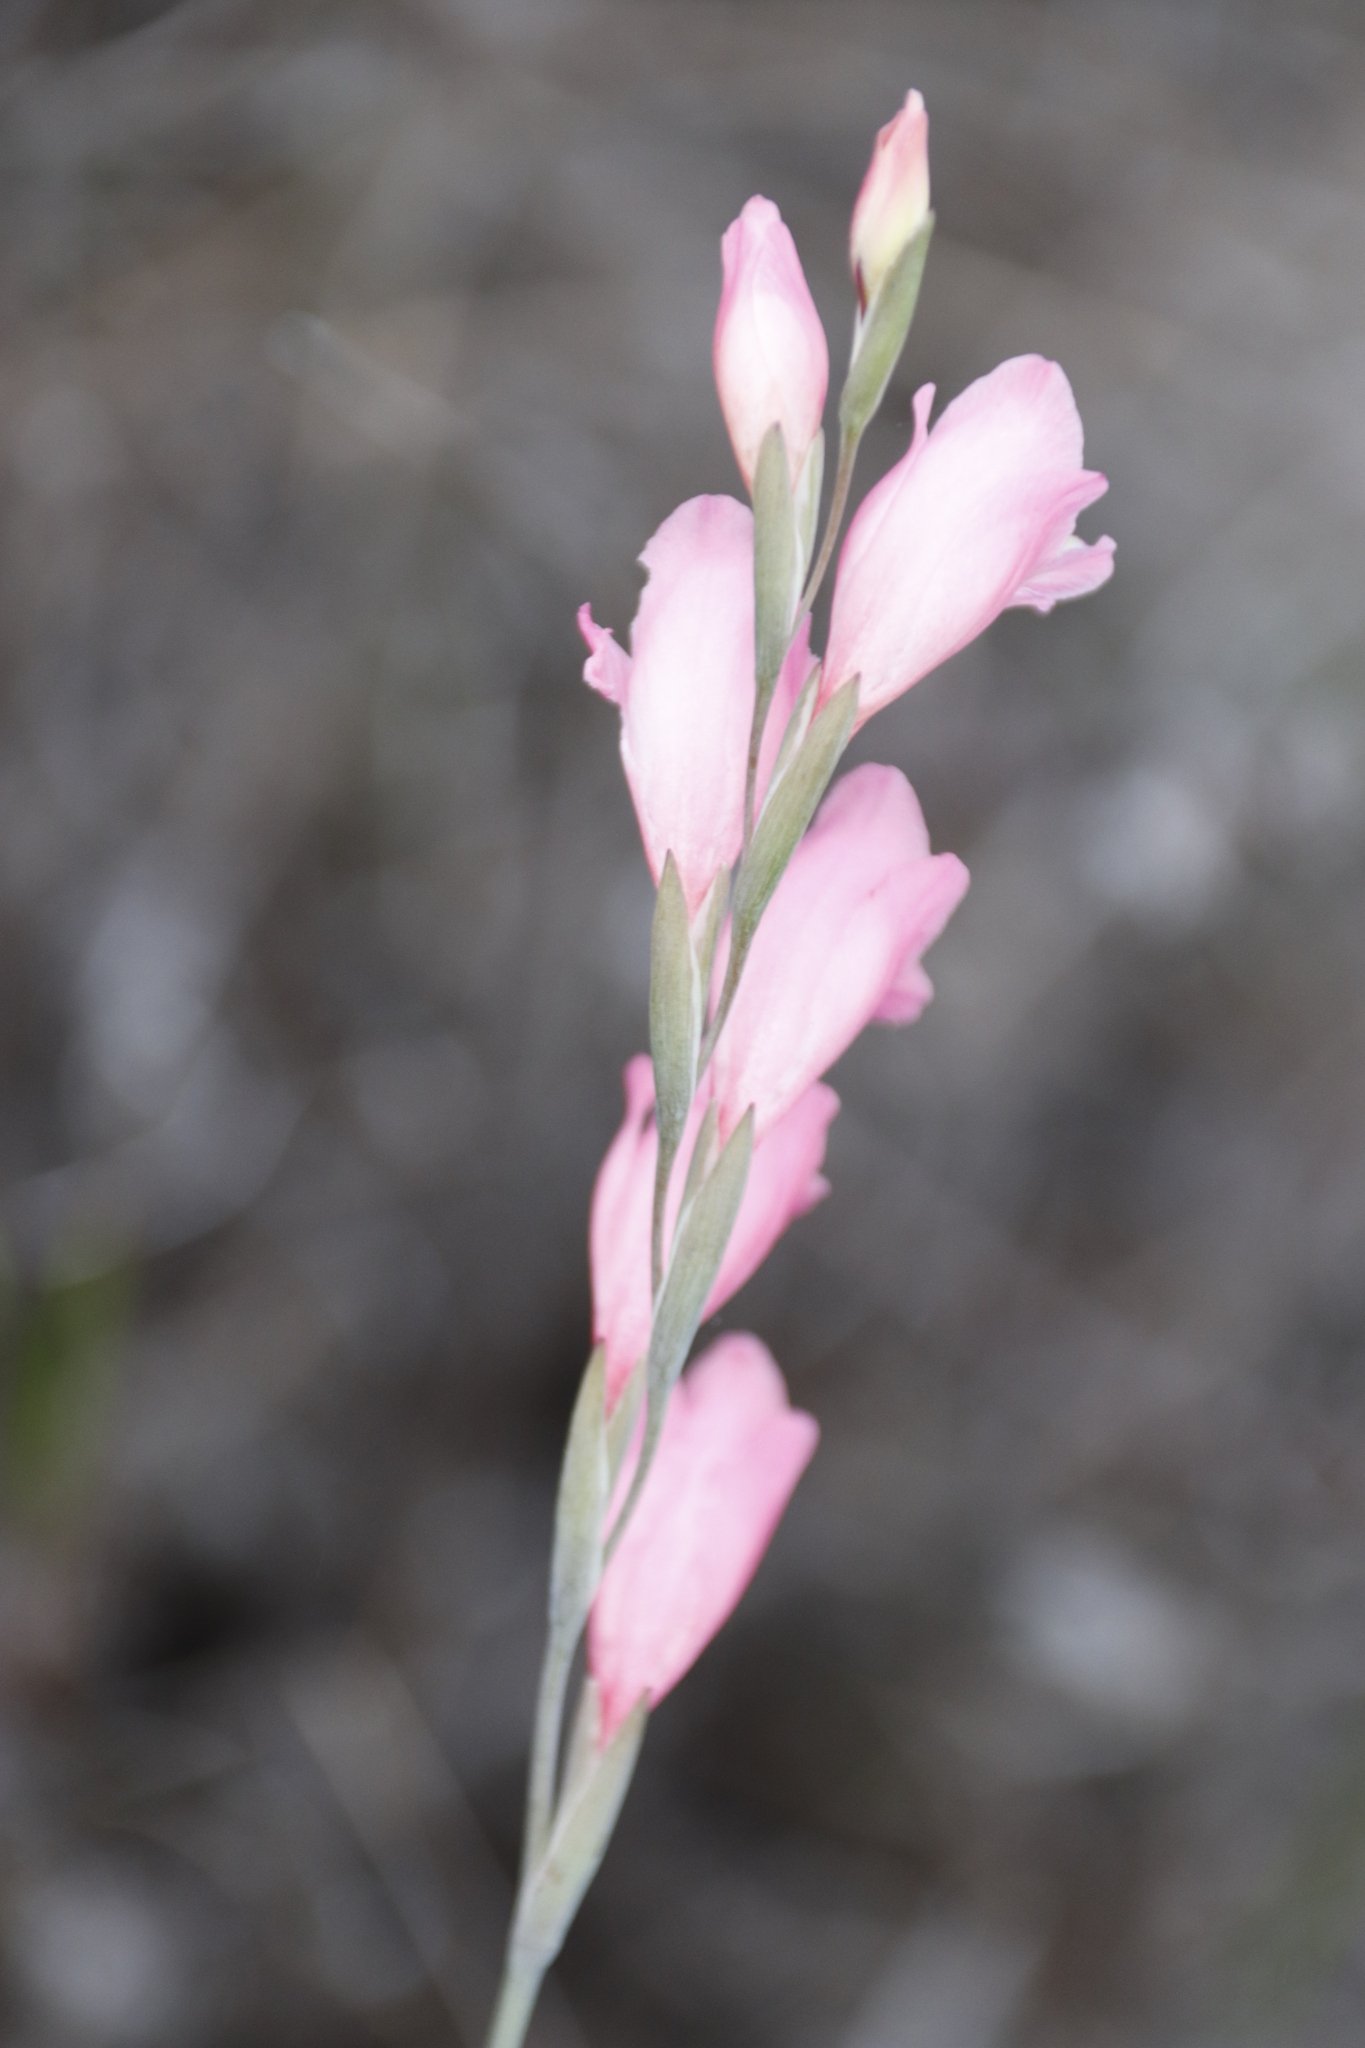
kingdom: Plantae
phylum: Tracheophyta
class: Liliopsida
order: Asparagales
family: Iridaceae
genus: Gladiolus
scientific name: Gladiolus brevifolius
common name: March pypie
